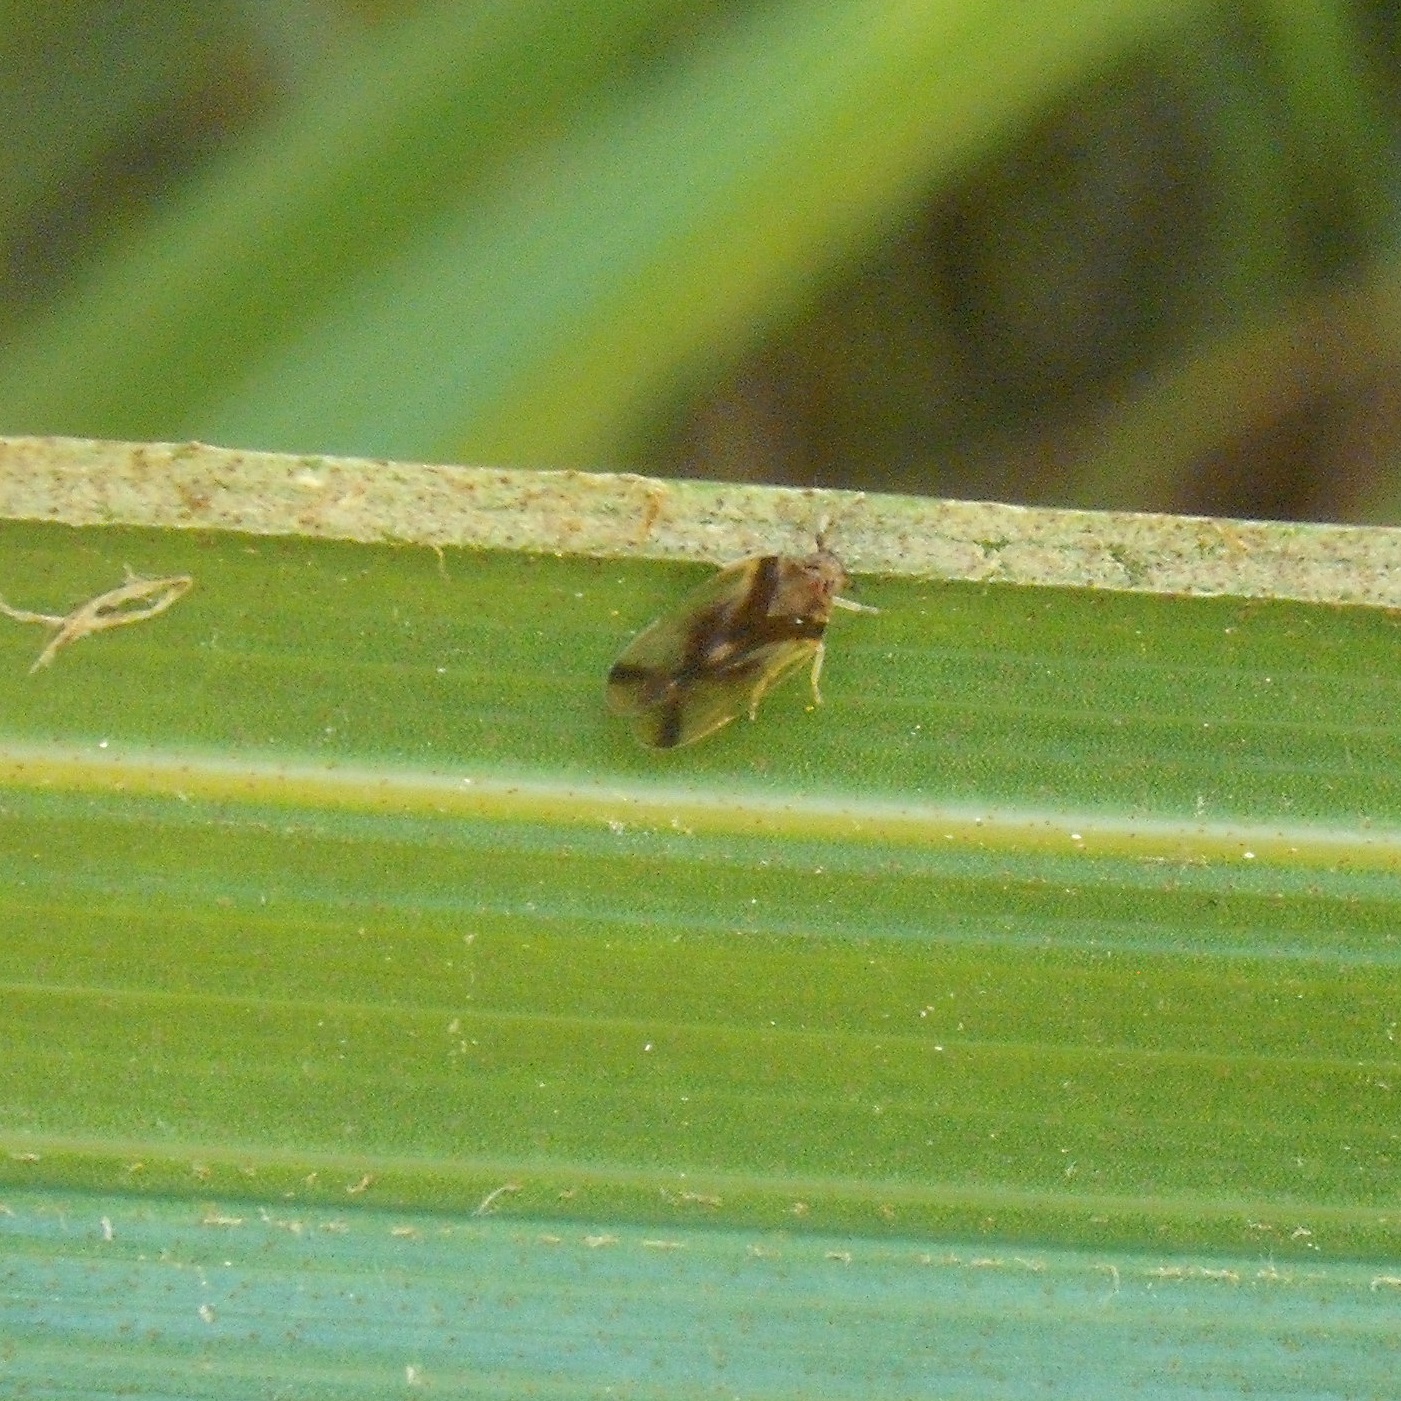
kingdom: Animalia
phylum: Arthropoda
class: Insecta
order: Hemiptera
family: Cixiidae
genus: Tiriteana
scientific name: Tiriteana clarkei
